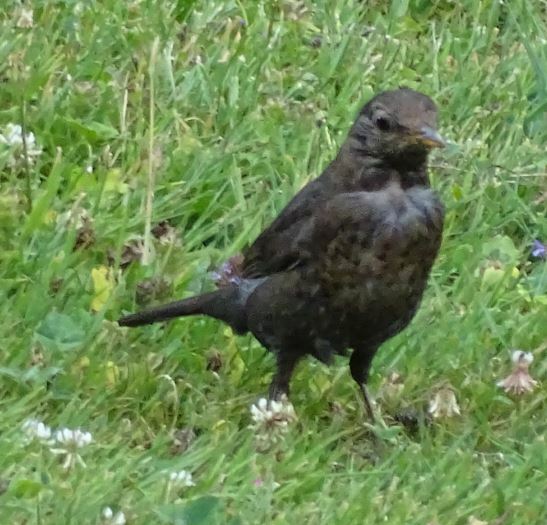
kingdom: Animalia
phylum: Chordata
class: Aves
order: Passeriformes
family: Turdidae
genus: Turdus
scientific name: Turdus merula
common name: Common blackbird
